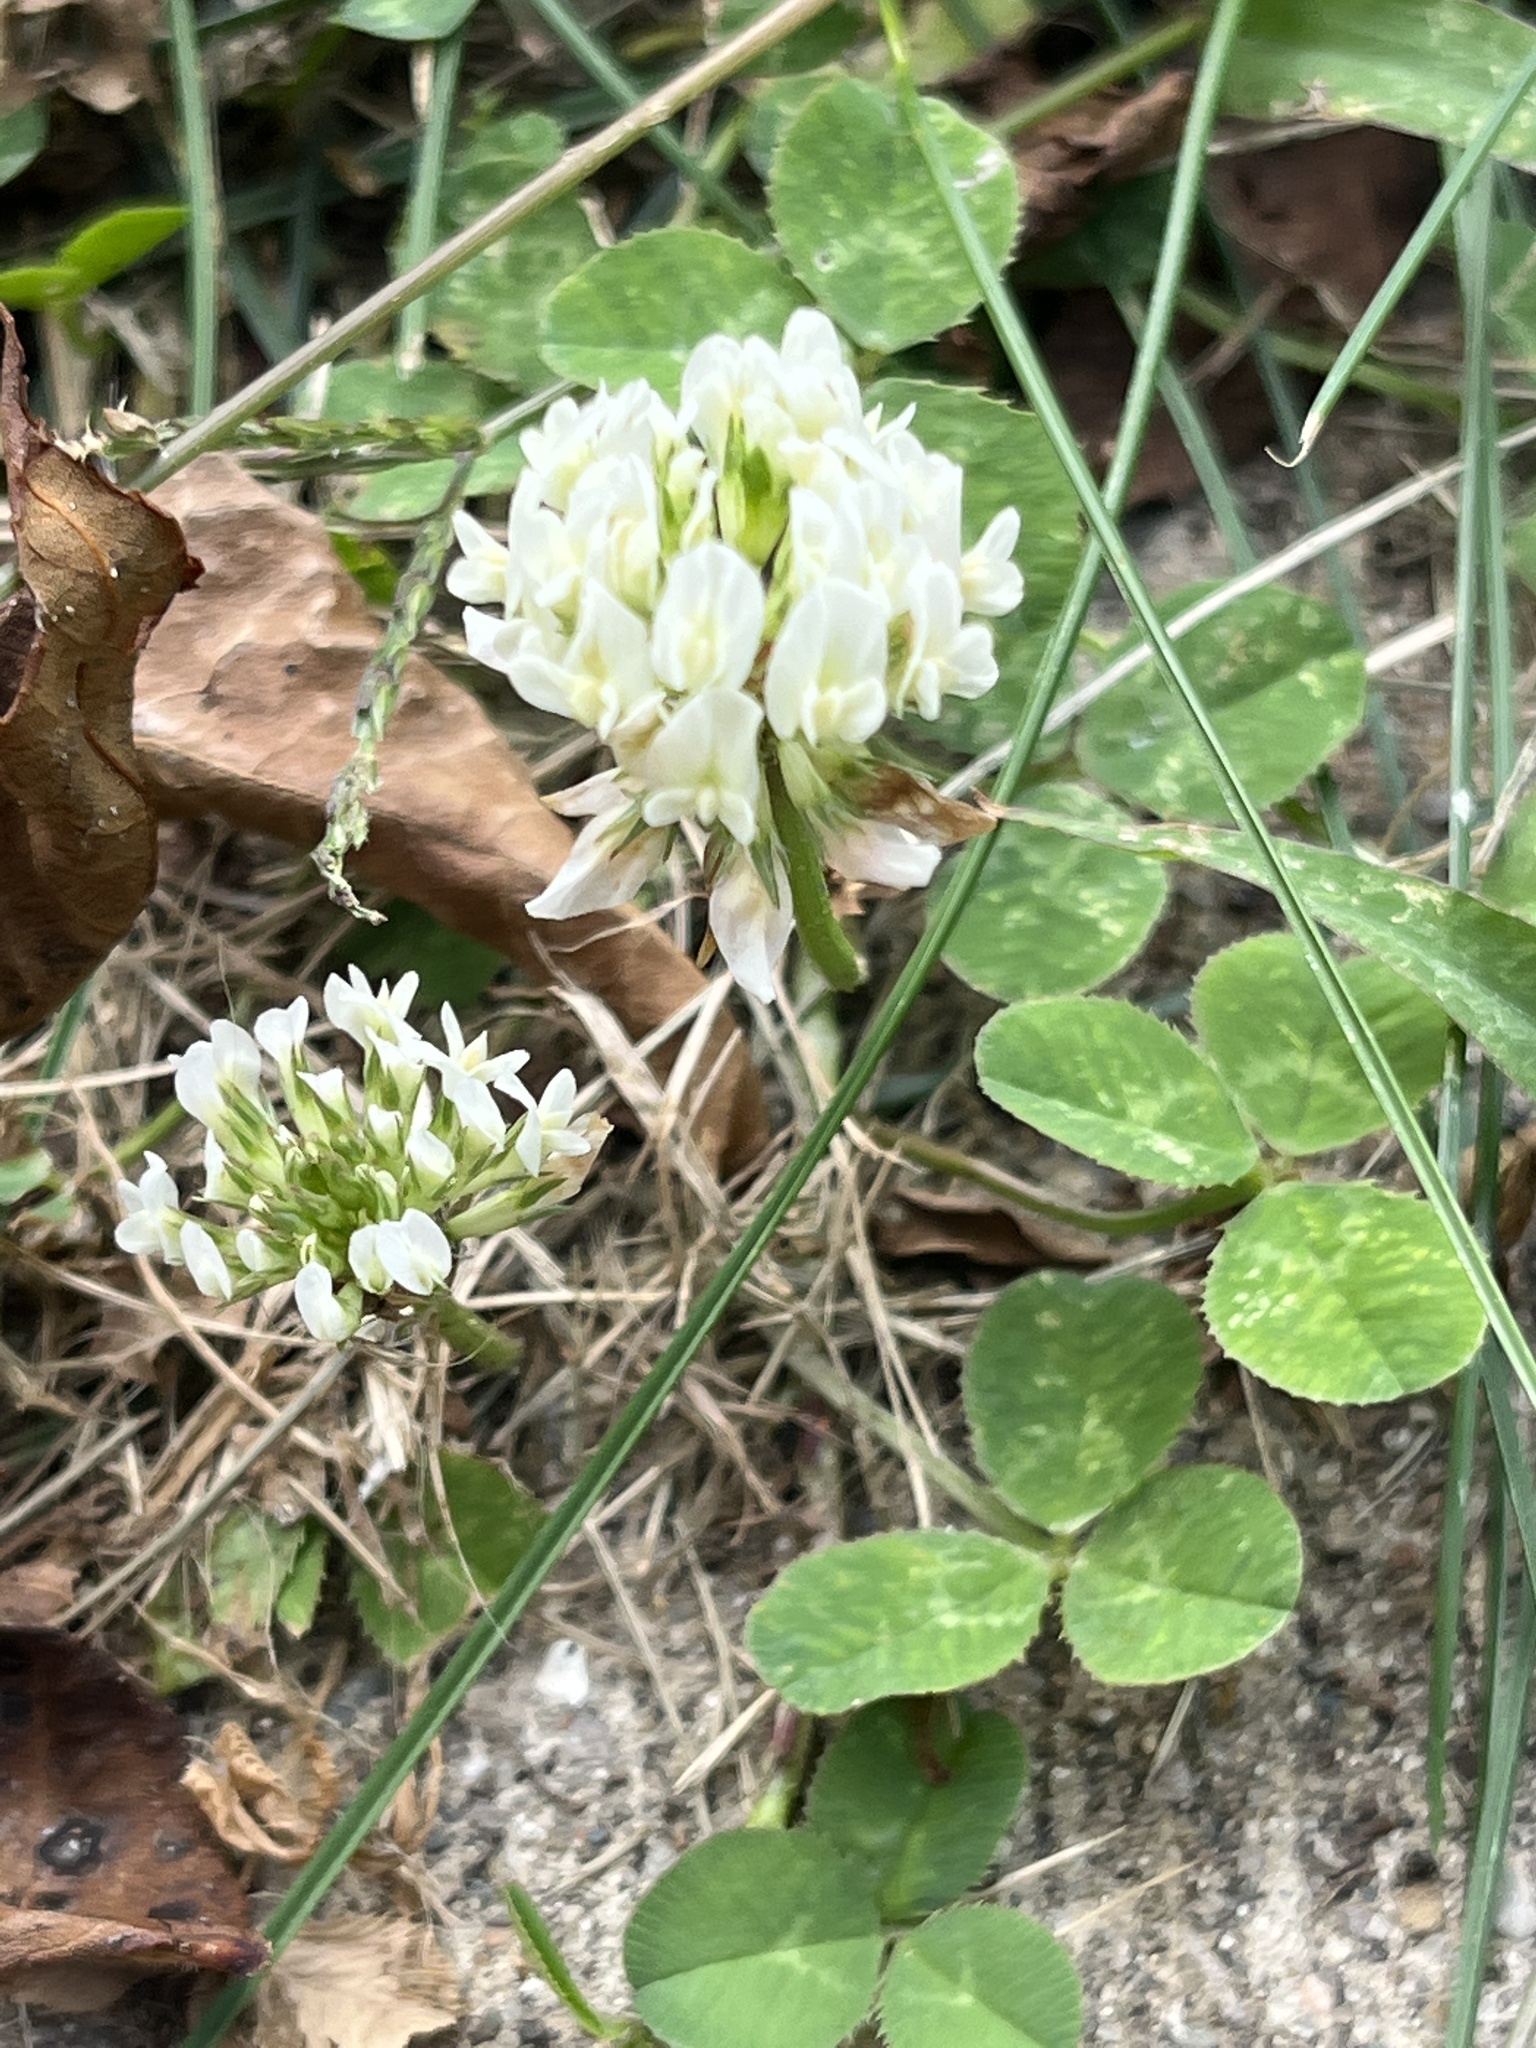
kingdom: Plantae
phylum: Tracheophyta
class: Magnoliopsida
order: Fabales
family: Fabaceae
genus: Trifolium
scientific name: Trifolium repens
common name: White clover
